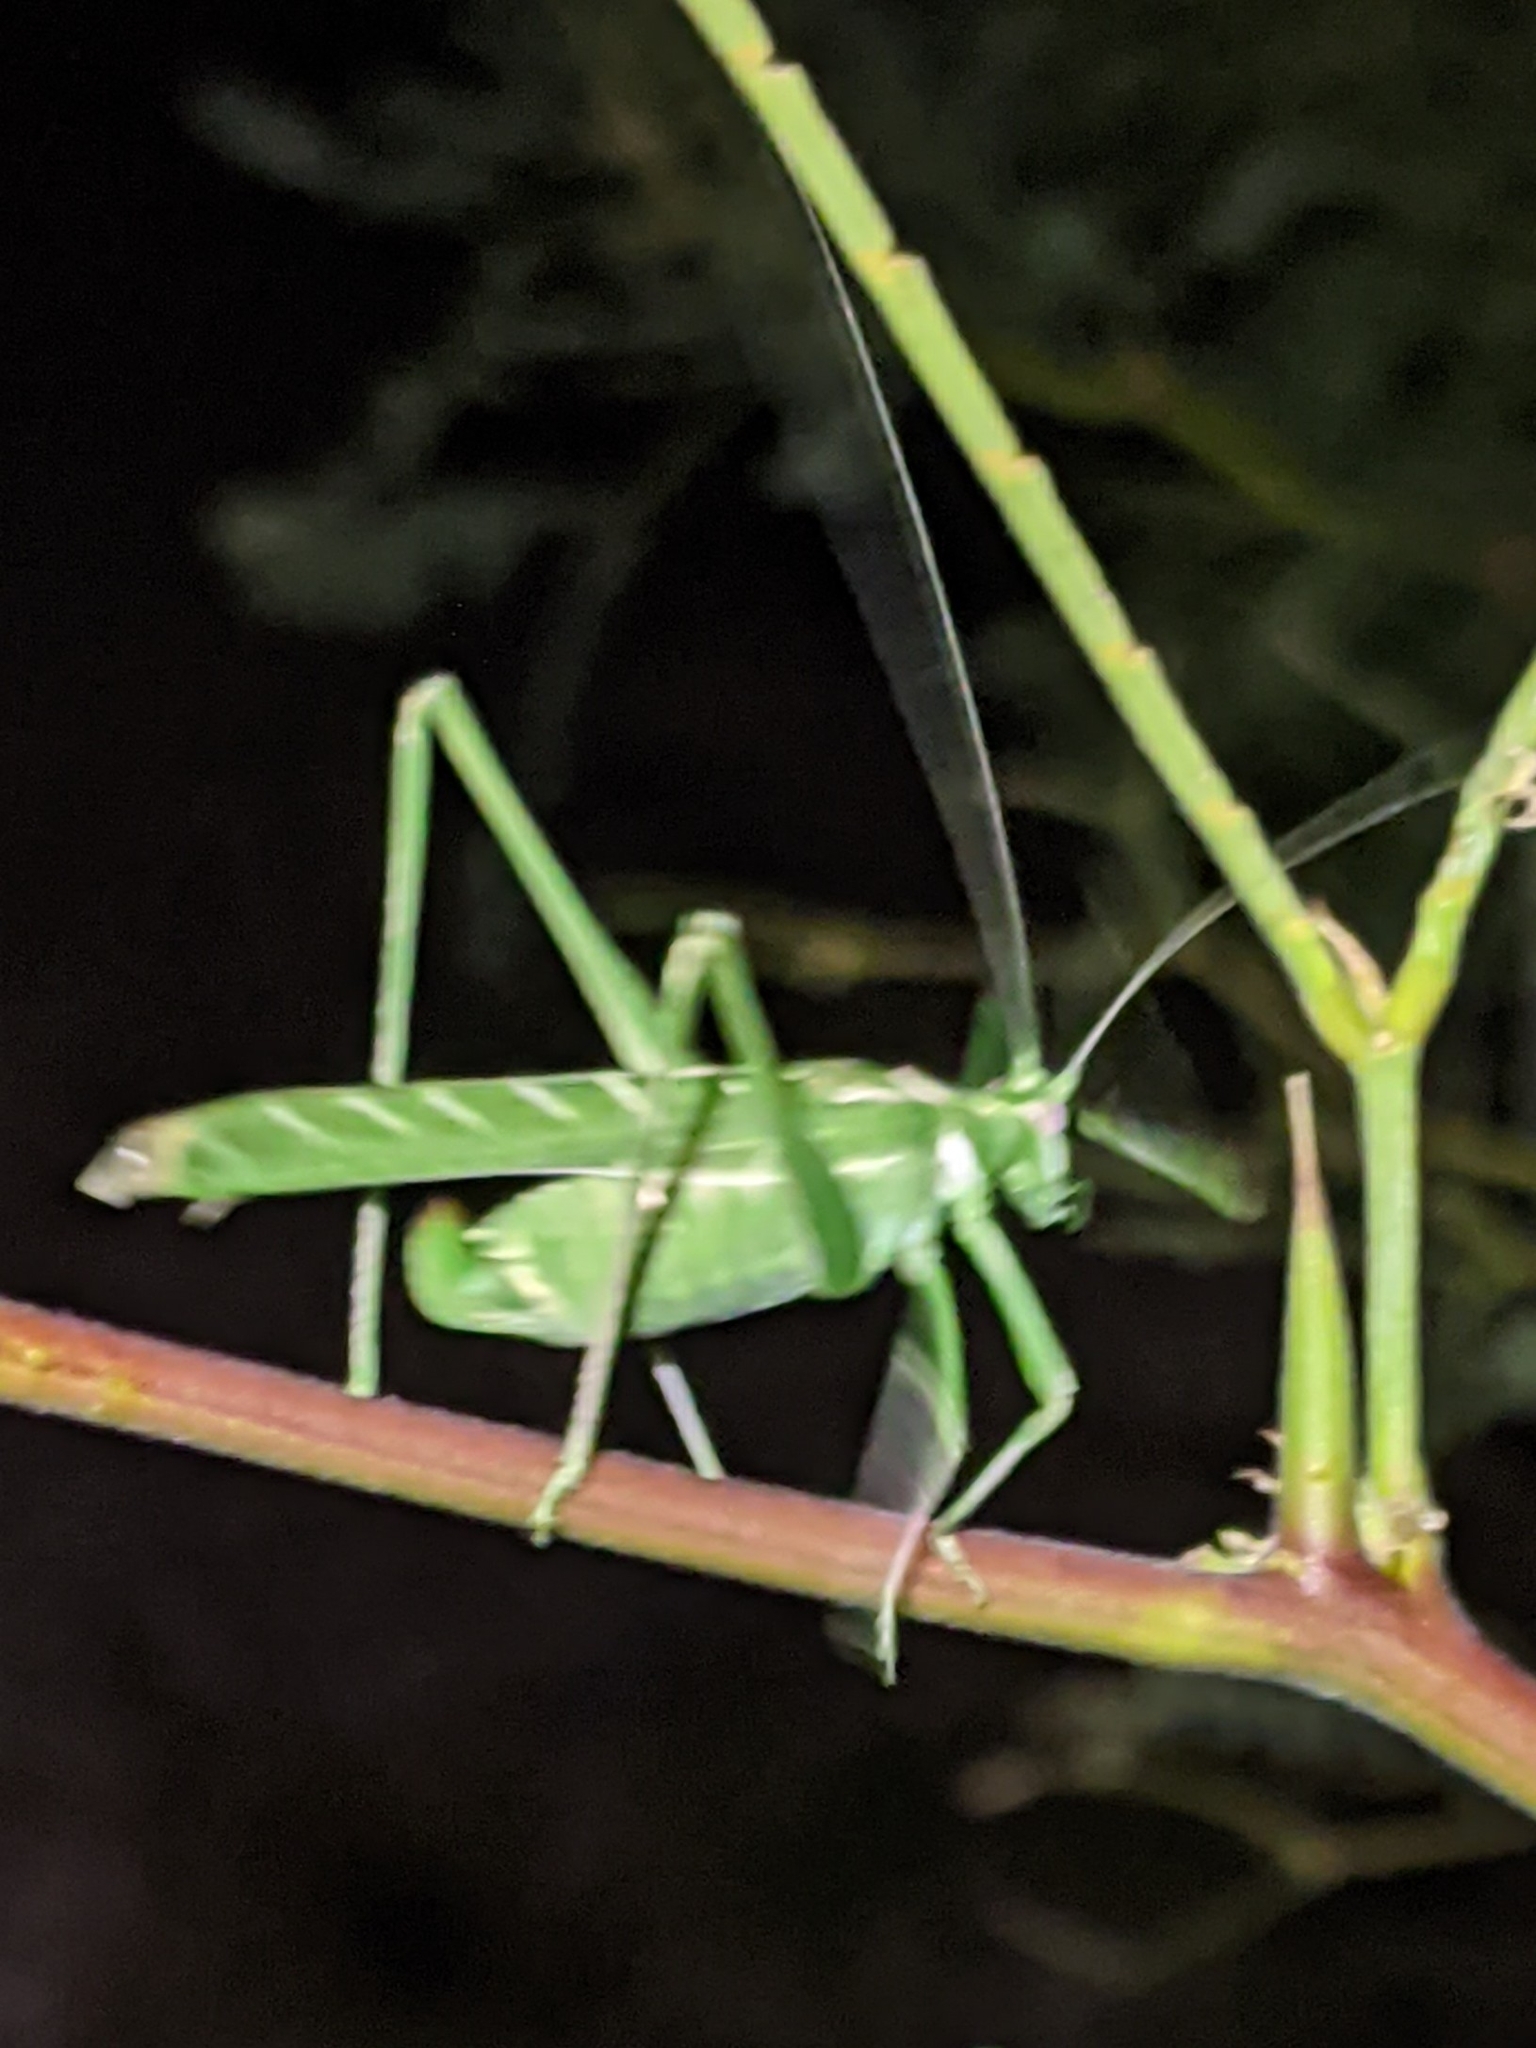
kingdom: Animalia
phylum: Arthropoda
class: Insecta
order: Orthoptera
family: Tettigoniidae
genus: Insara
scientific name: Insara elegans
